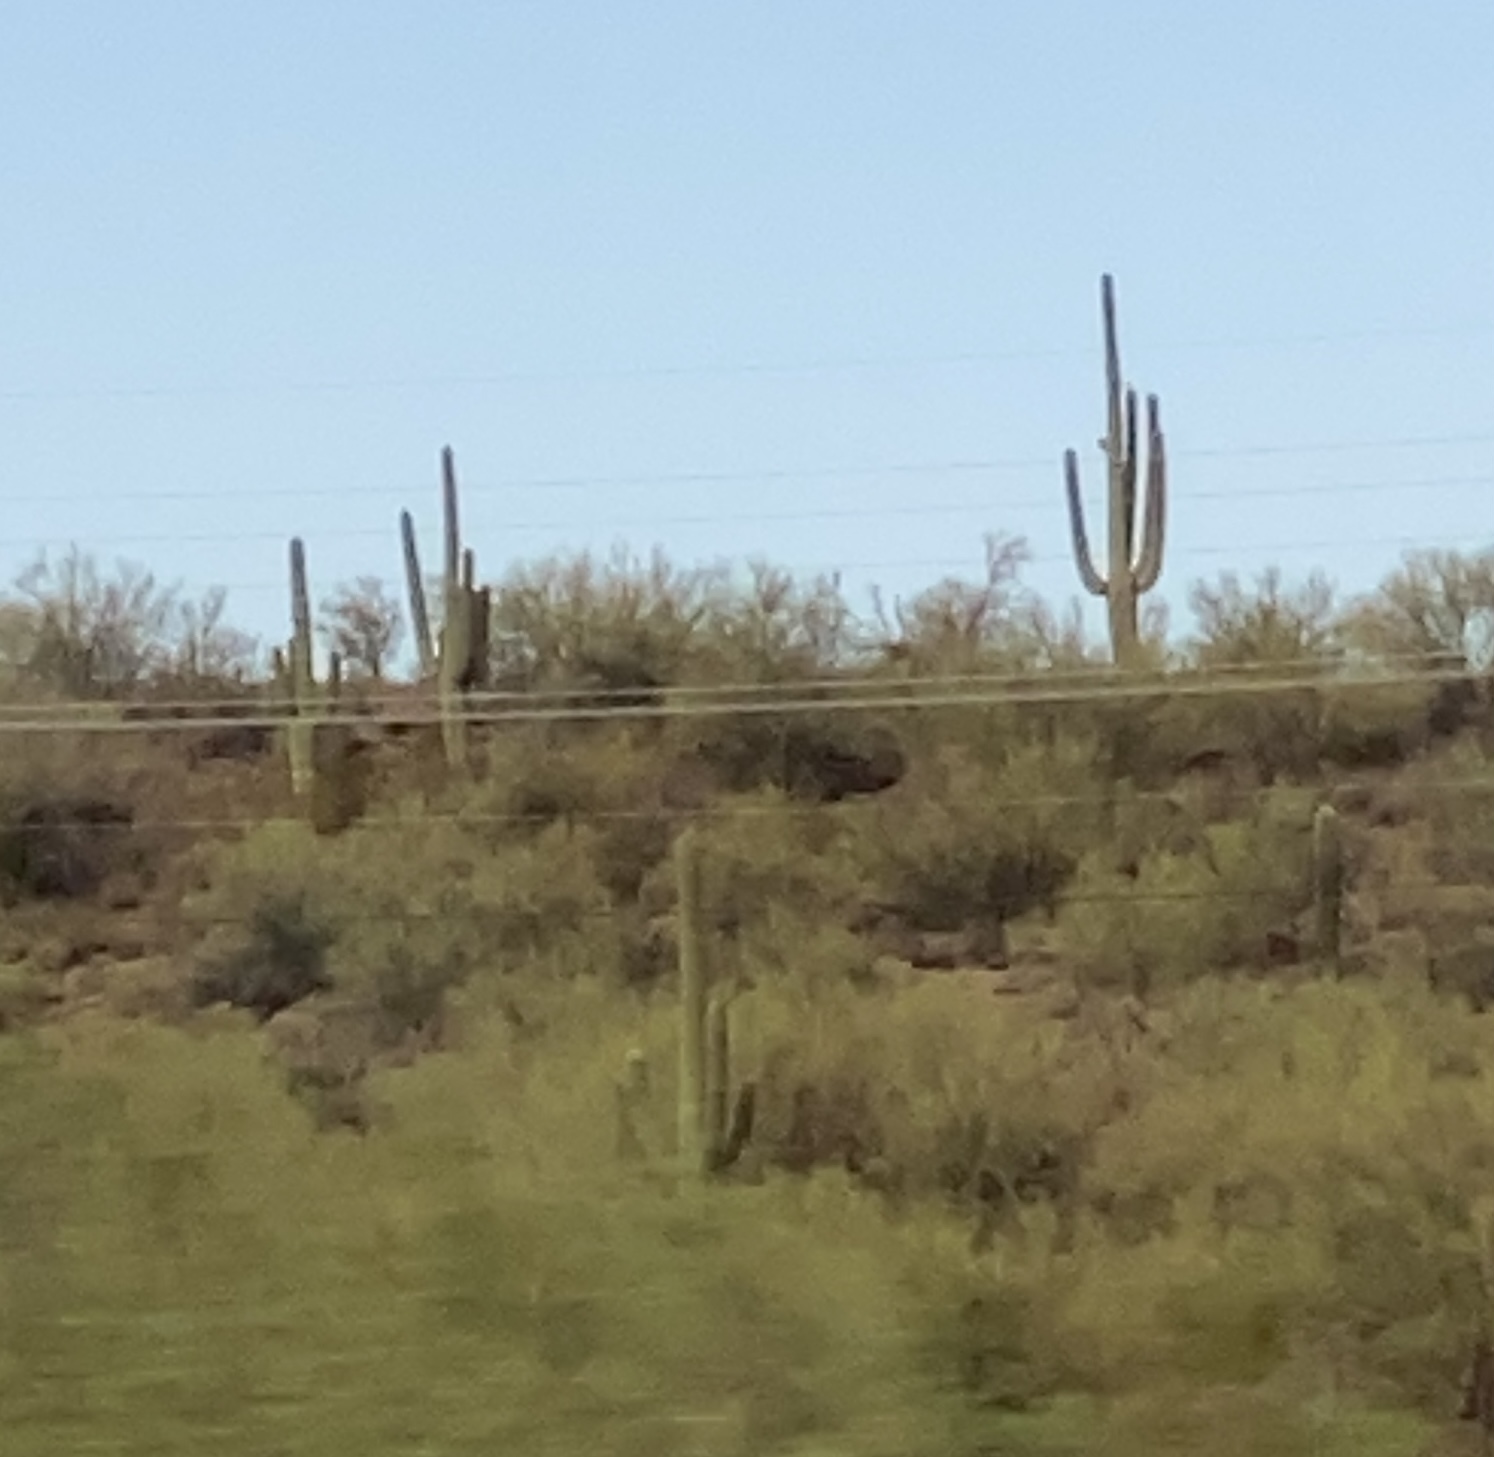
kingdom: Plantae
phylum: Tracheophyta
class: Magnoliopsida
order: Caryophyllales
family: Cactaceae
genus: Carnegiea
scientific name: Carnegiea gigantea
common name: Saguaro
